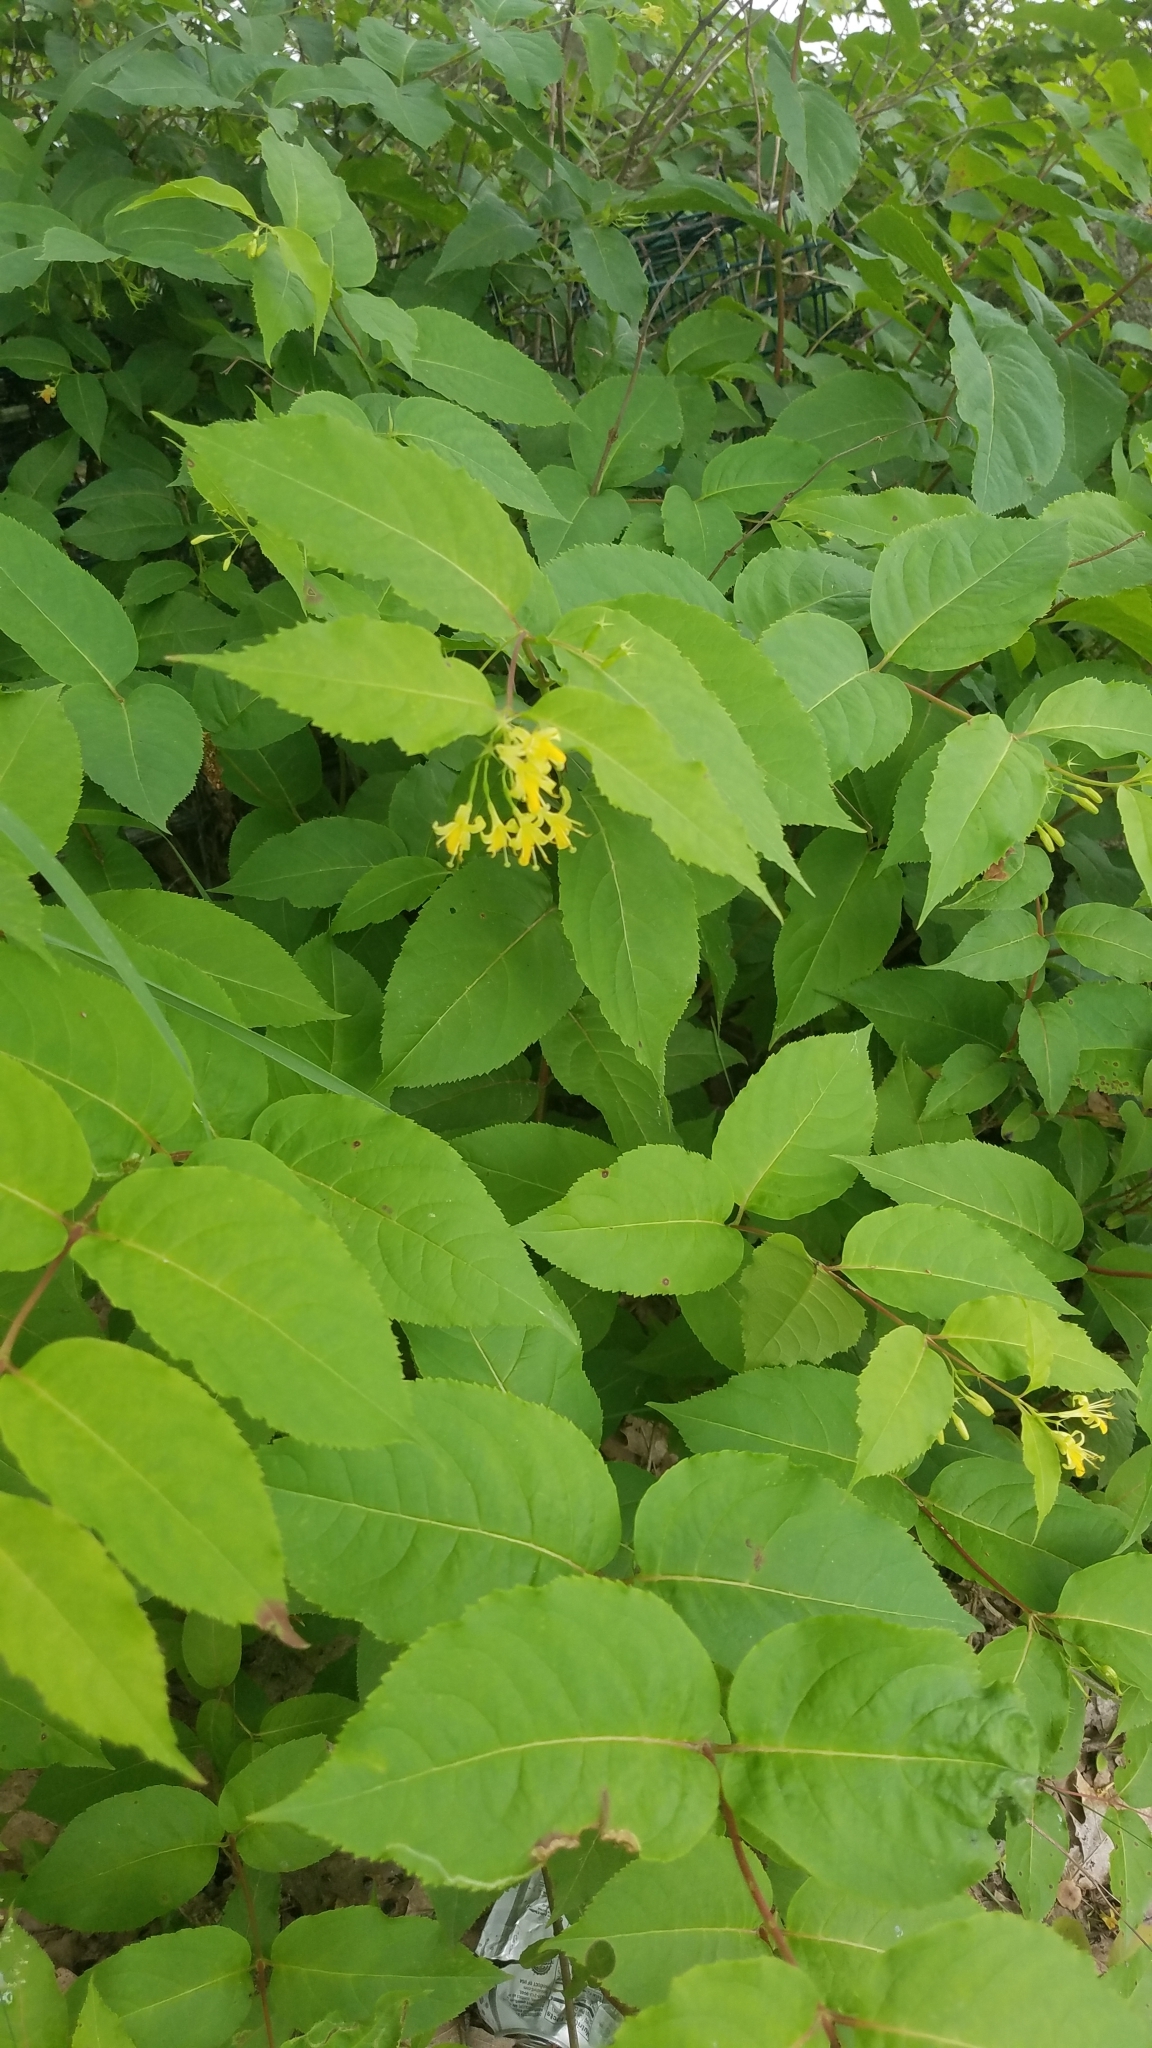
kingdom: Plantae
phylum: Tracheophyta
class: Magnoliopsida
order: Dipsacales
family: Caprifoliaceae
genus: Diervilla
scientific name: Diervilla lonicera
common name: Bush-honeysuckle
